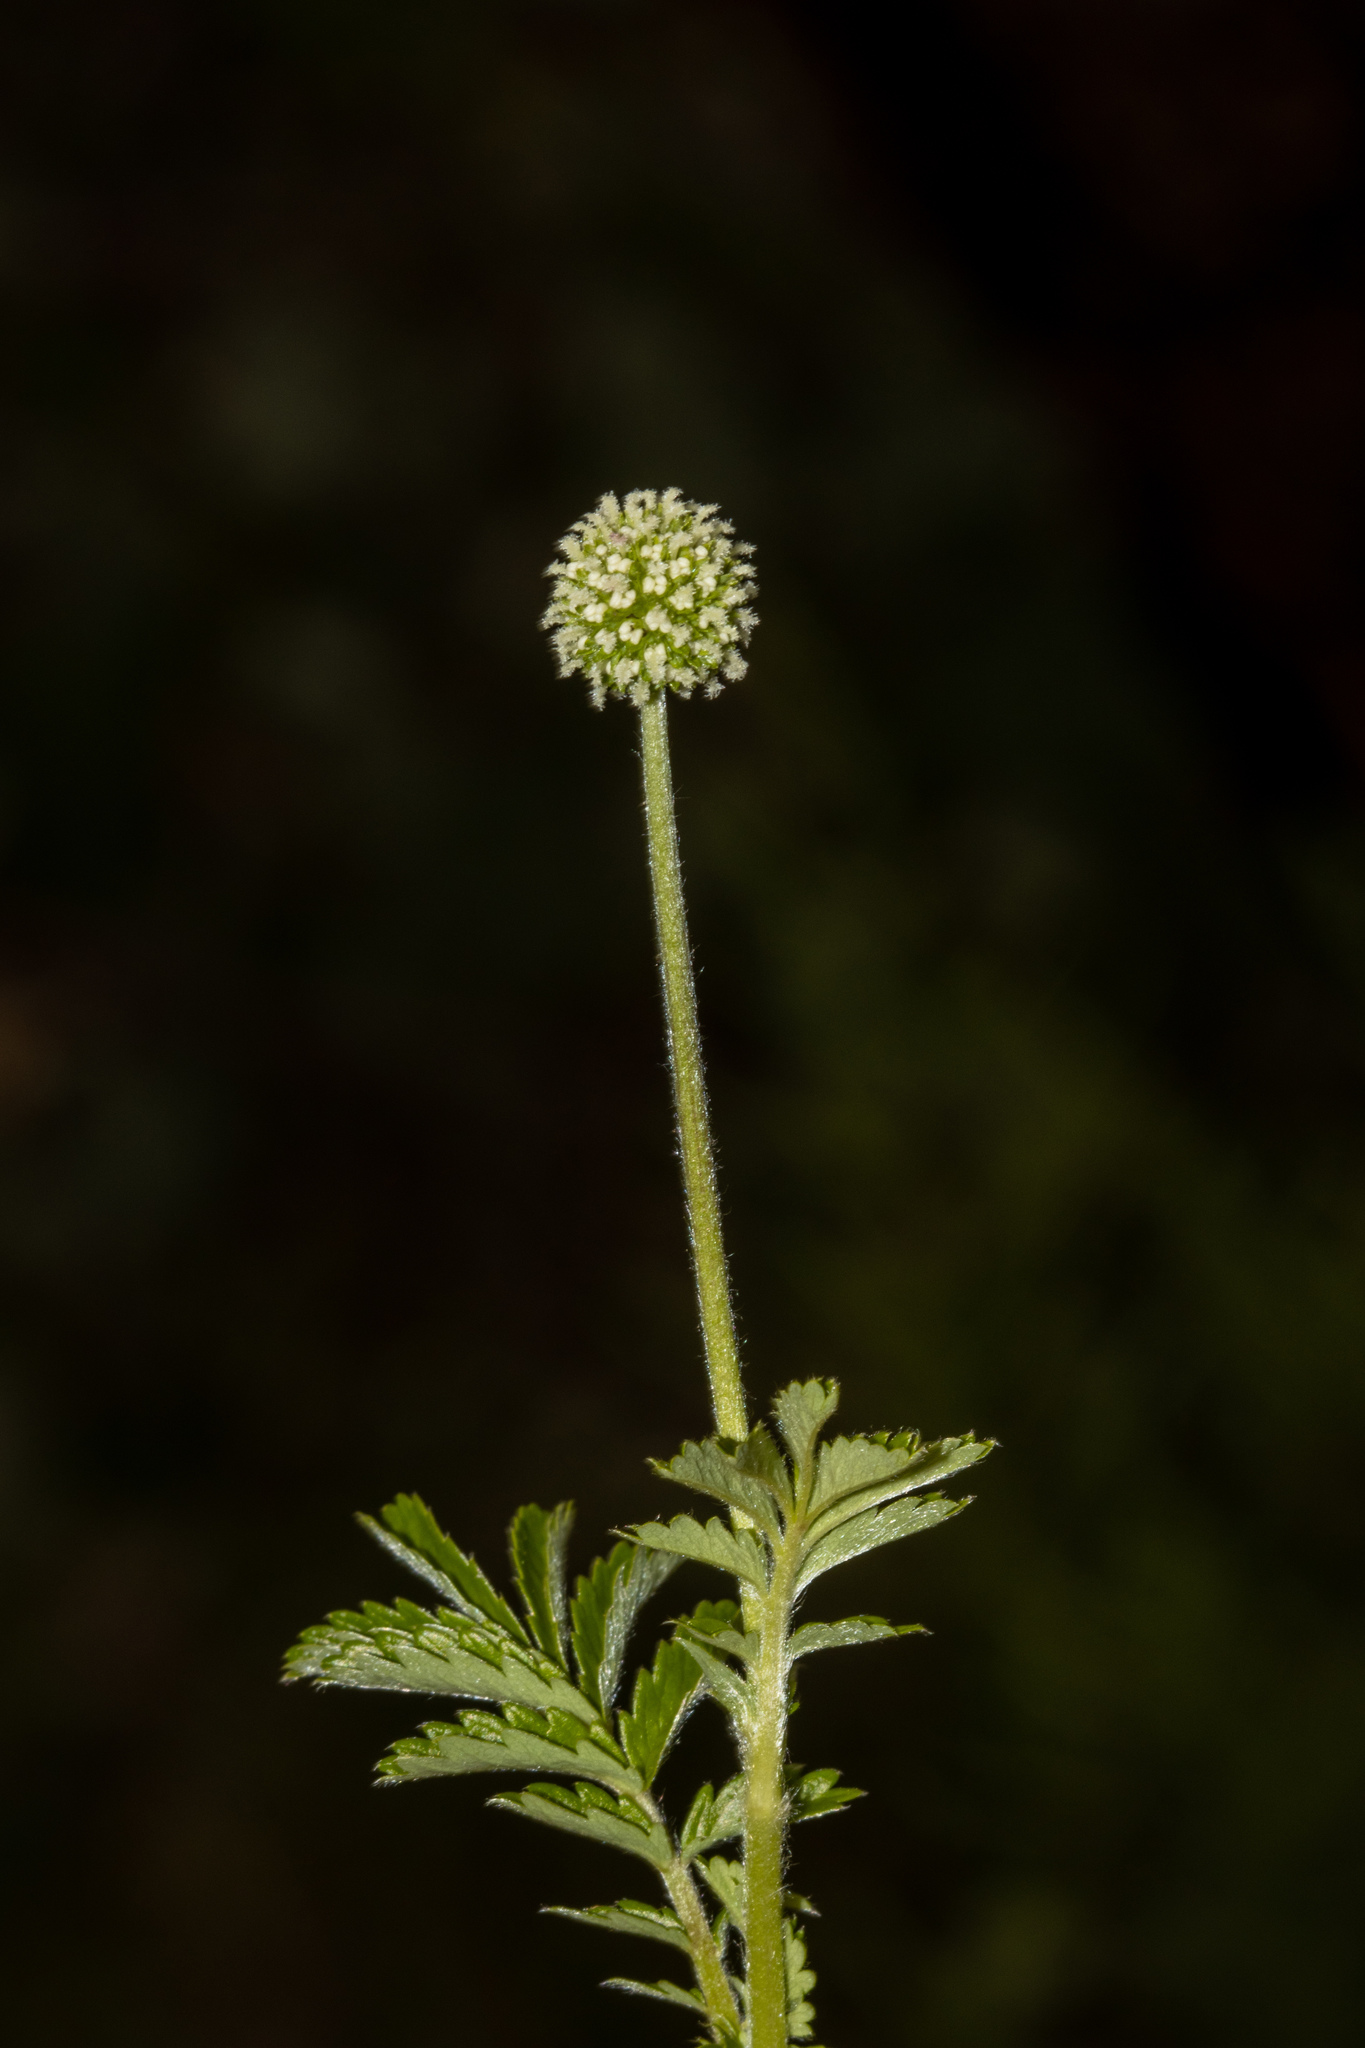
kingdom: Plantae
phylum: Tracheophyta
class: Magnoliopsida
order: Rosales
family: Rosaceae
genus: Acaena
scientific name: Acaena novae-zelandiae
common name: Pirri-pirri-bur
